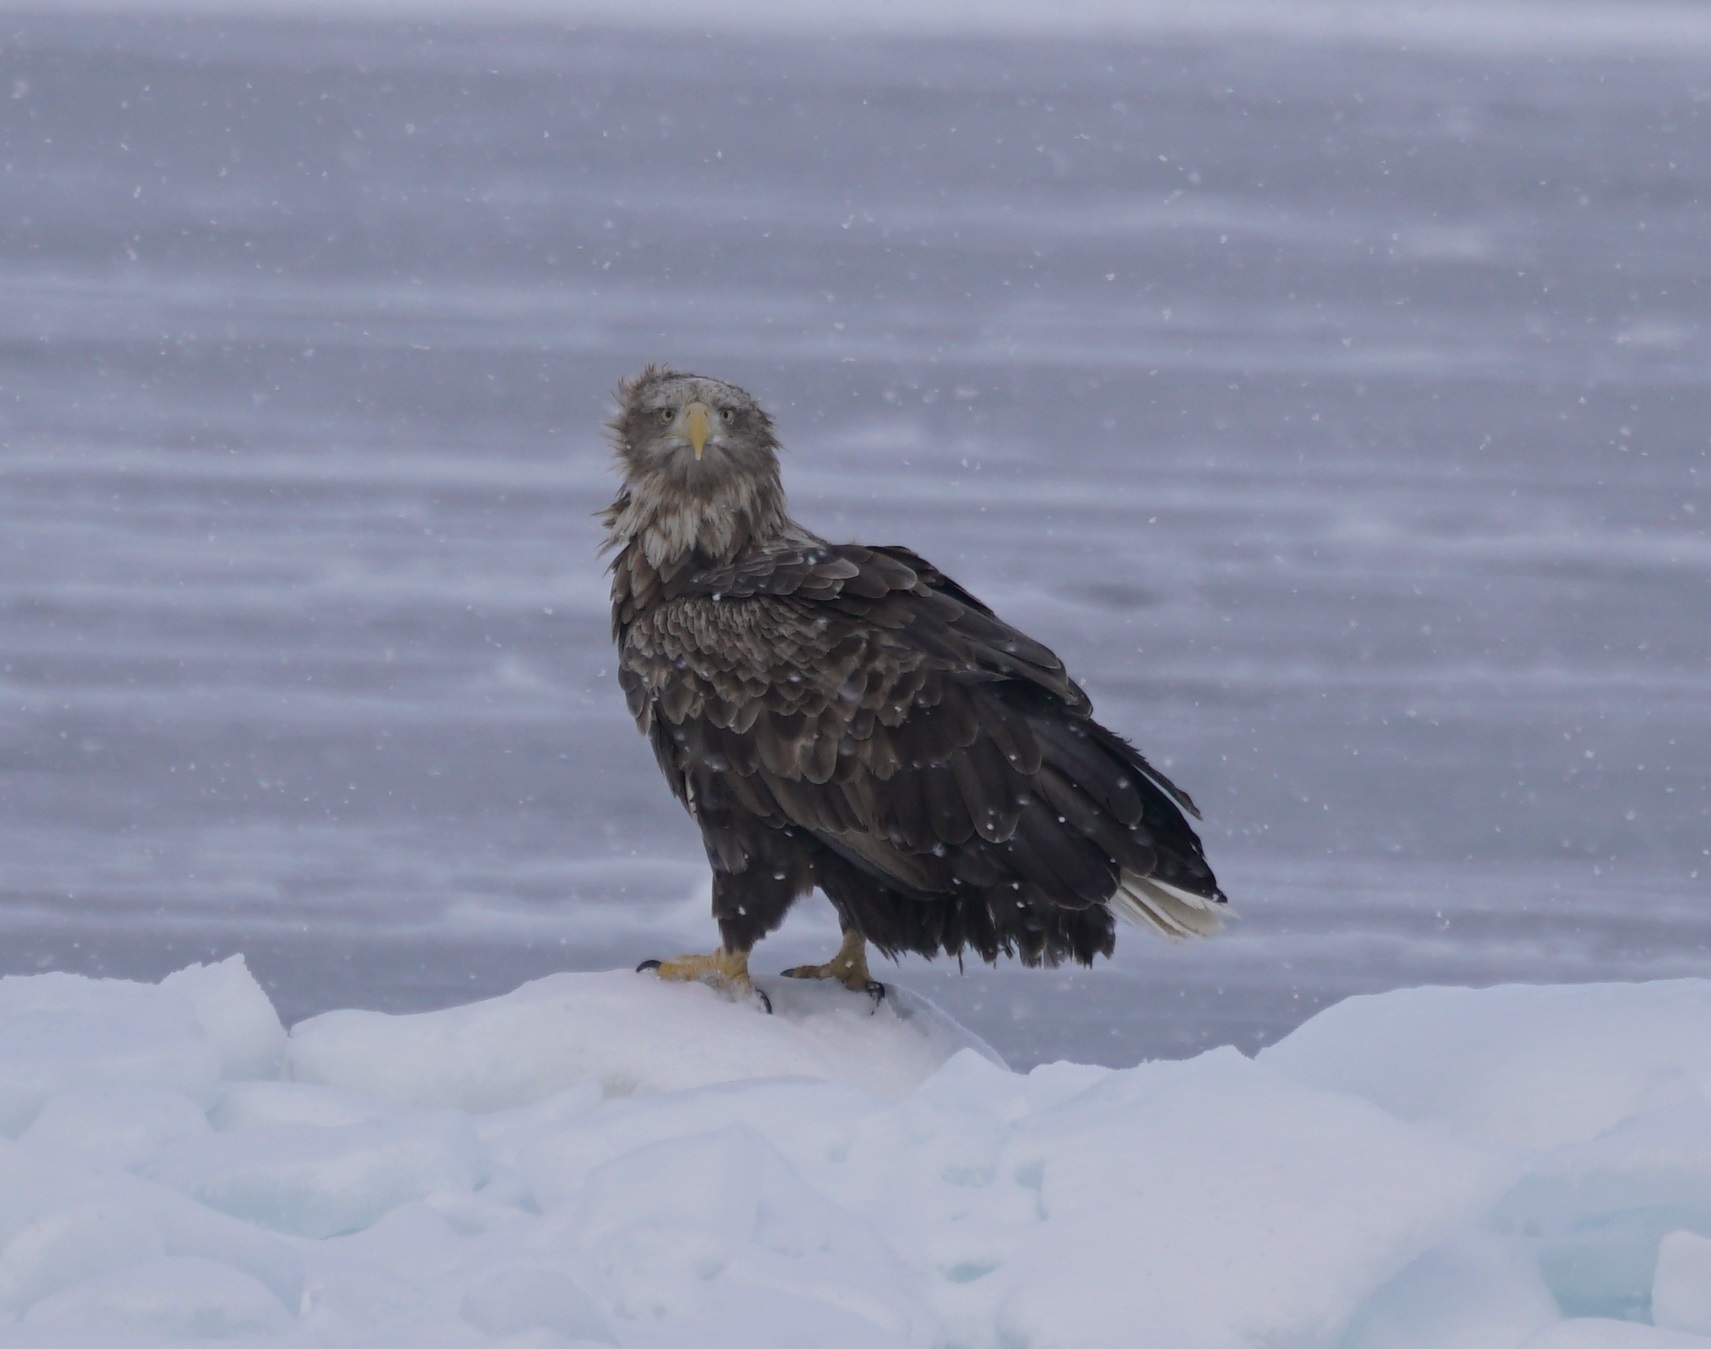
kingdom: Animalia
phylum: Chordata
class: Aves
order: Accipitriformes
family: Accipitridae
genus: Haliaeetus
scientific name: Haliaeetus albicilla
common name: White-tailed eagle
